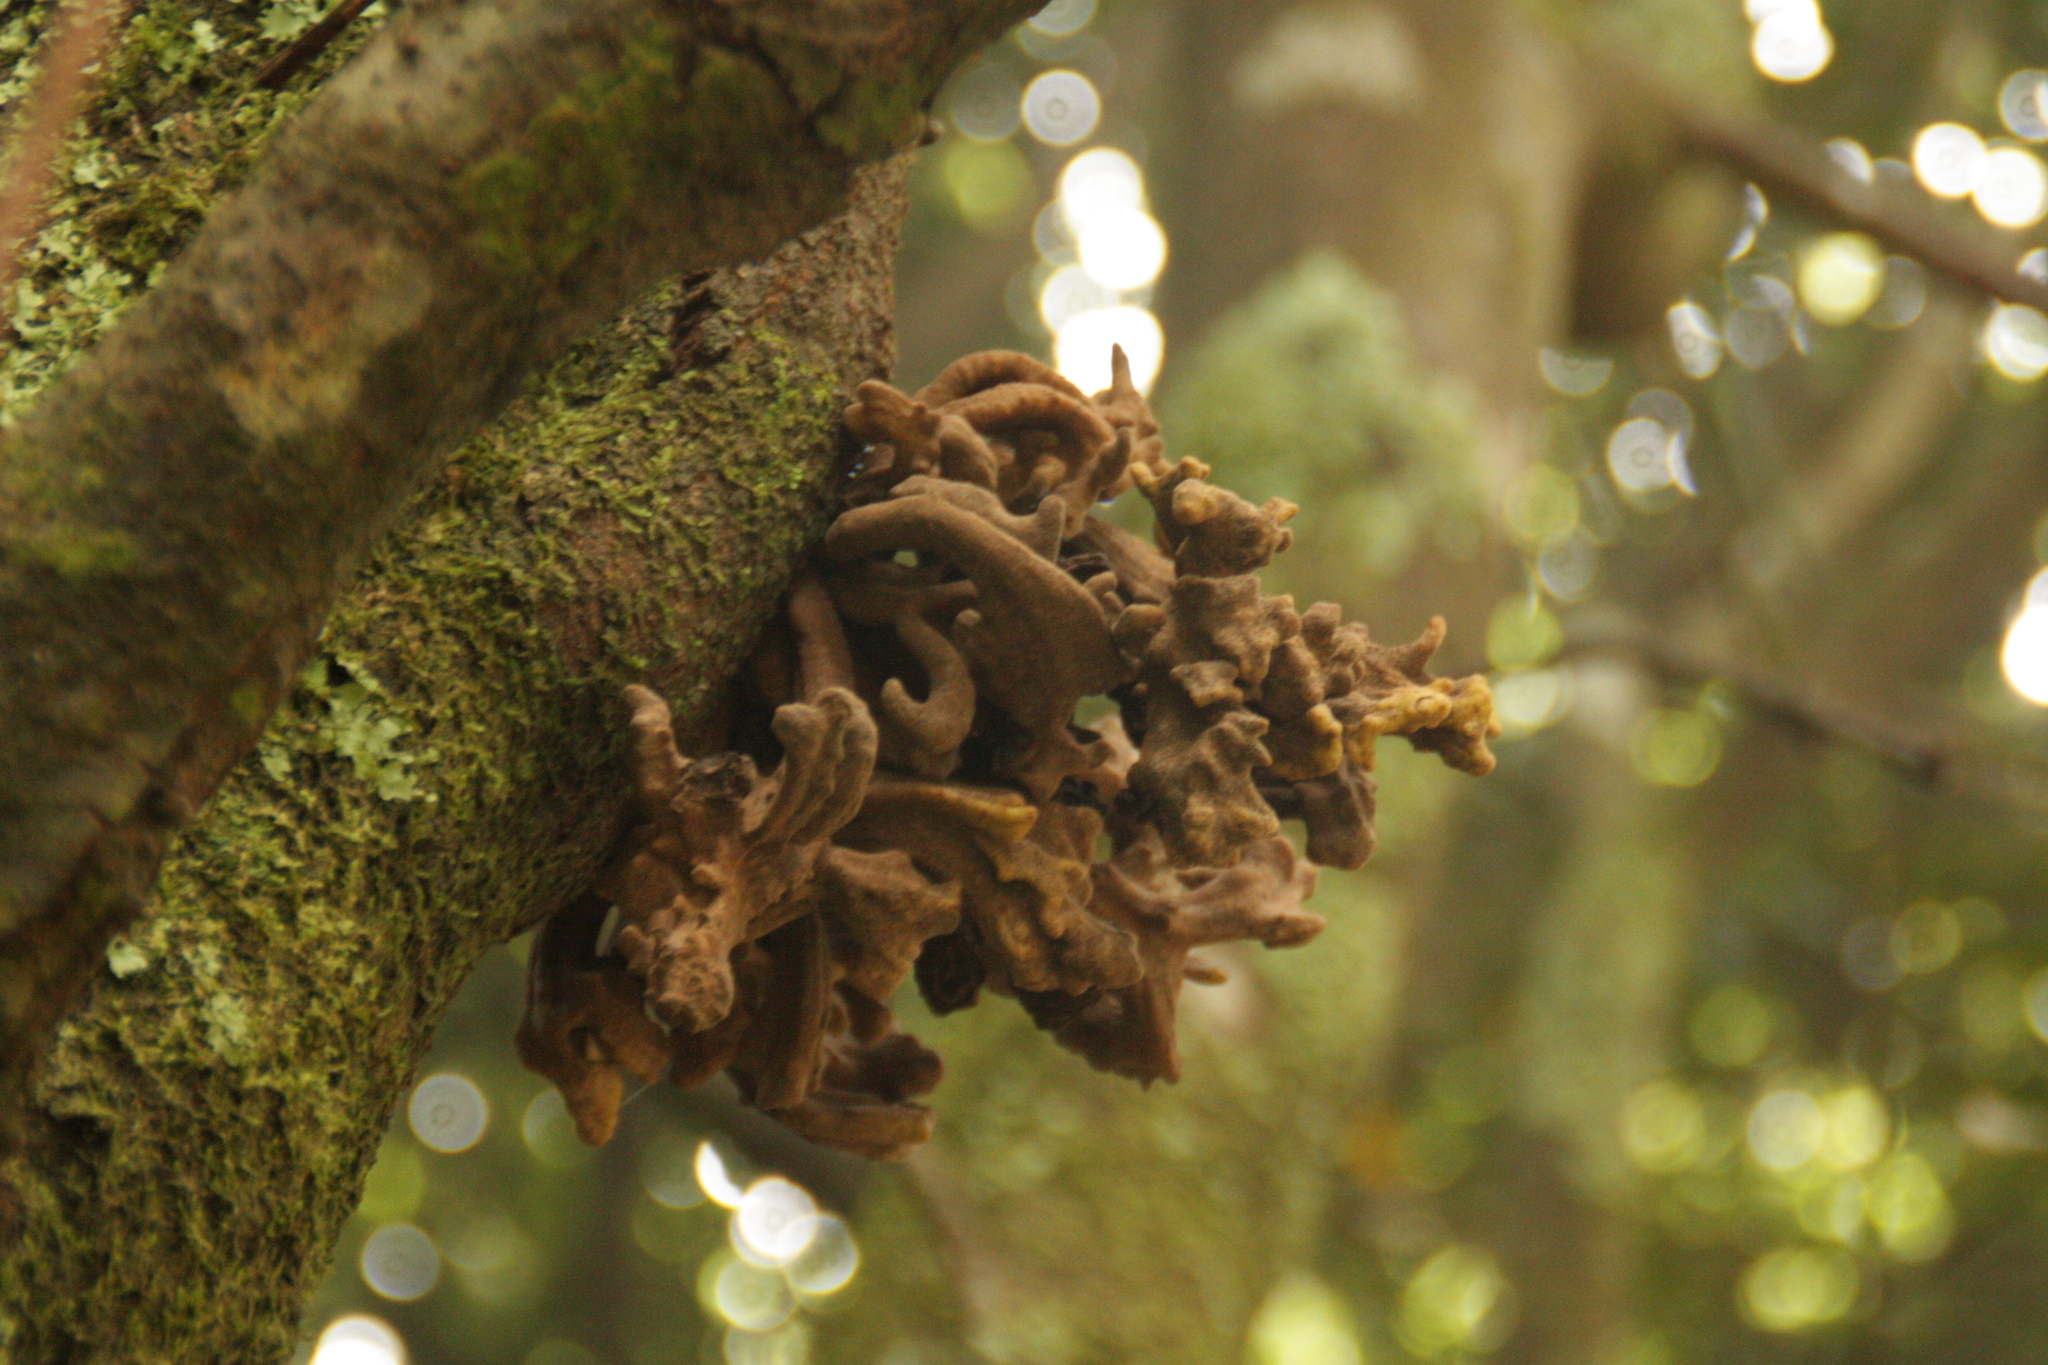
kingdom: Fungi
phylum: Basidiomycota
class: Exobasidiomycetes
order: Exobasidiales
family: Laurobasidiaceae
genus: Laurobasidium
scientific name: Laurobasidium lauri
